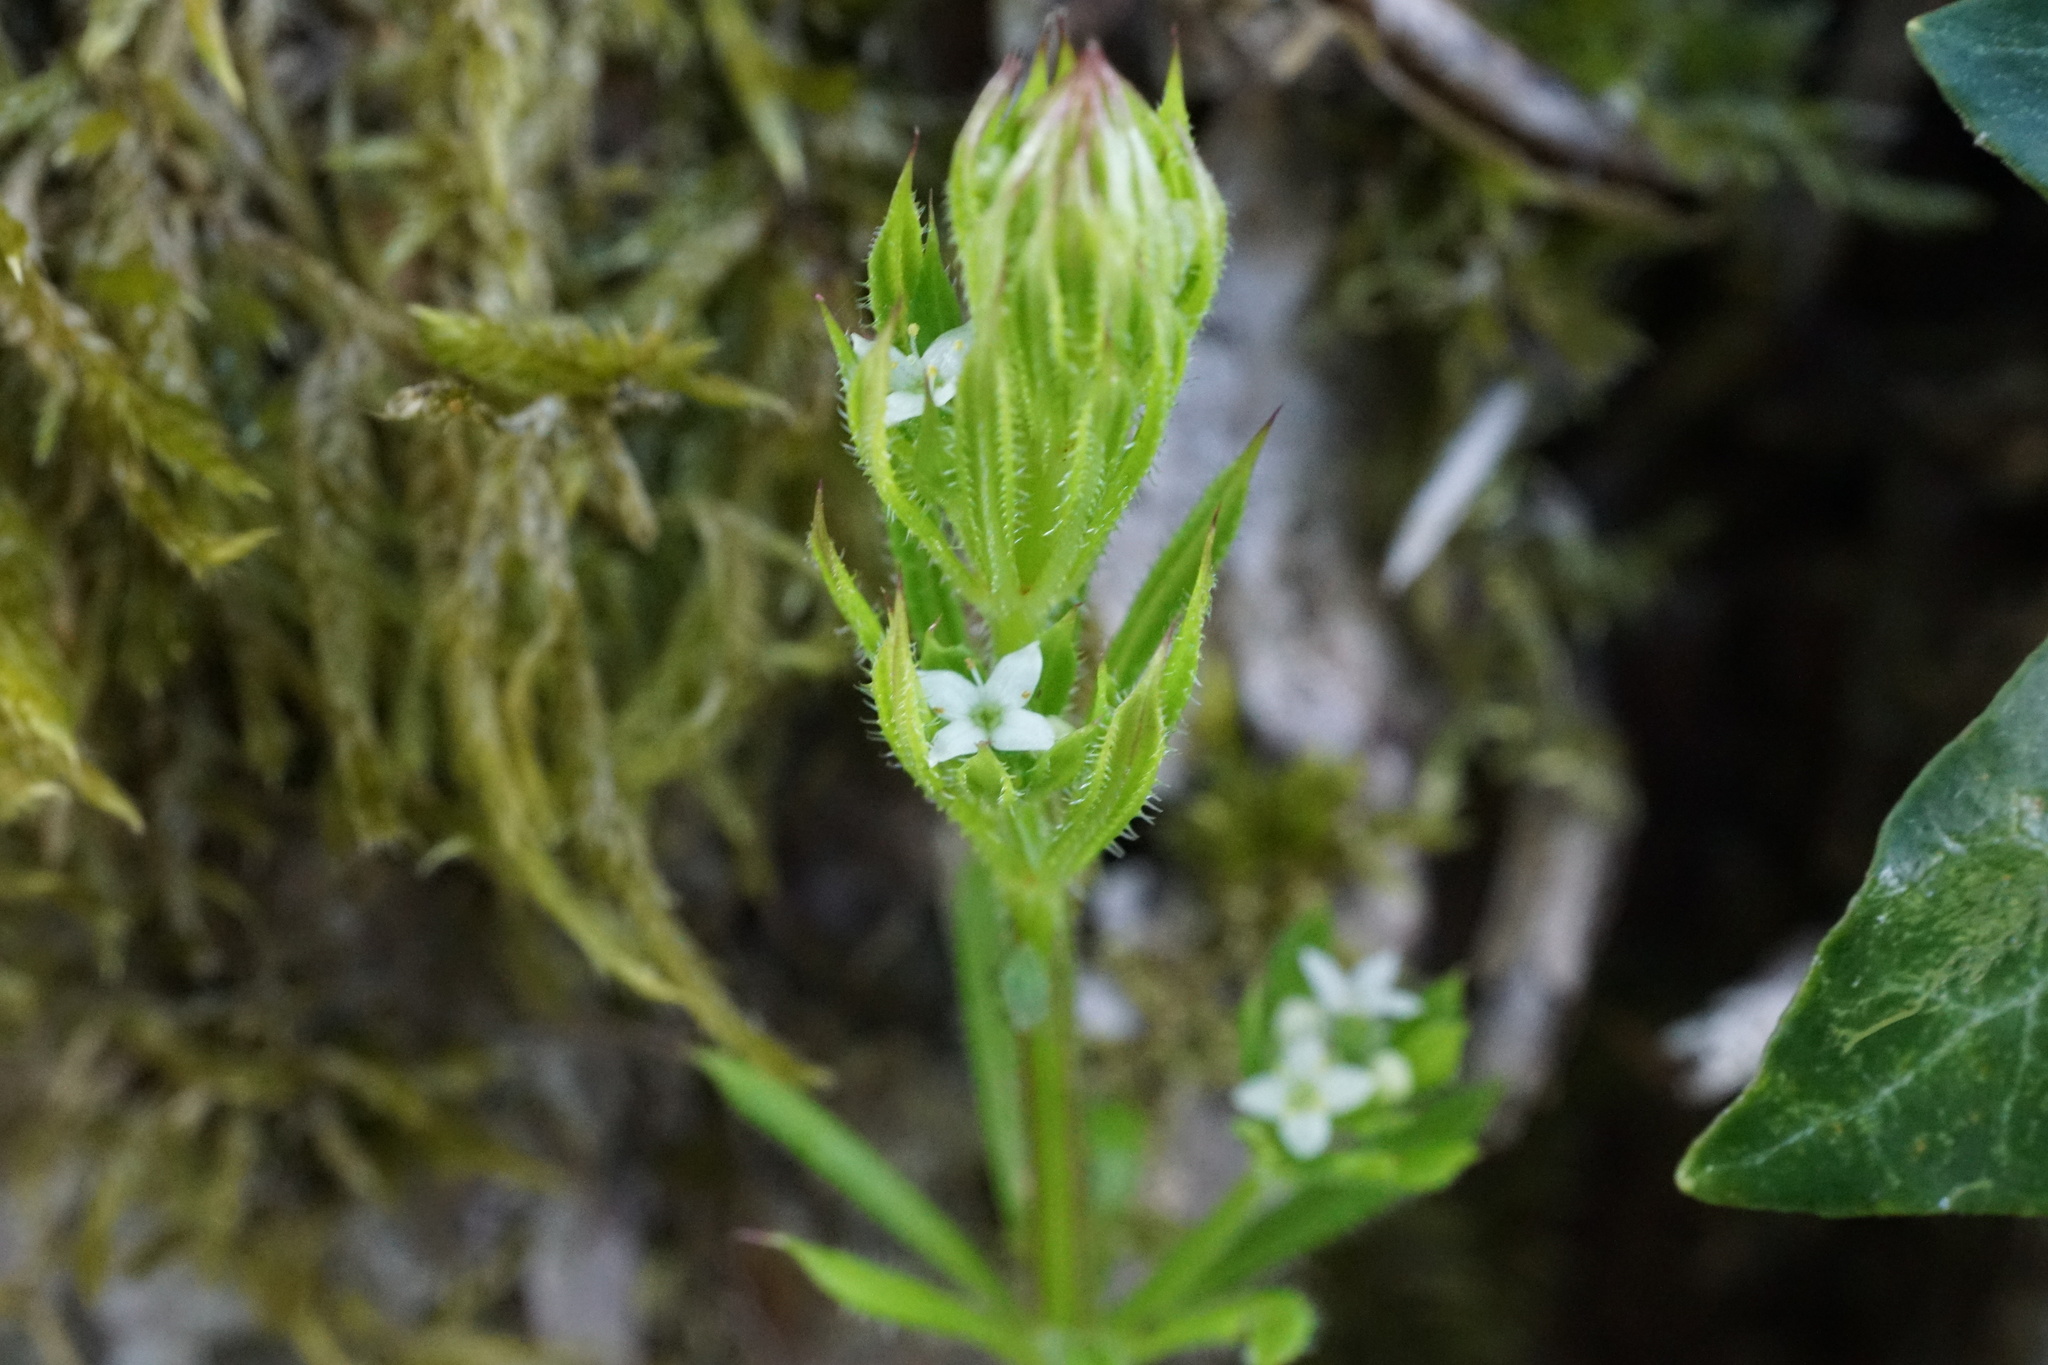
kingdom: Plantae
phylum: Tracheophyta
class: Magnoliopsida
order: Gentianales
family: Rubiaceae
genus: Galium
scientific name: Galium aparine
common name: Cleavers
